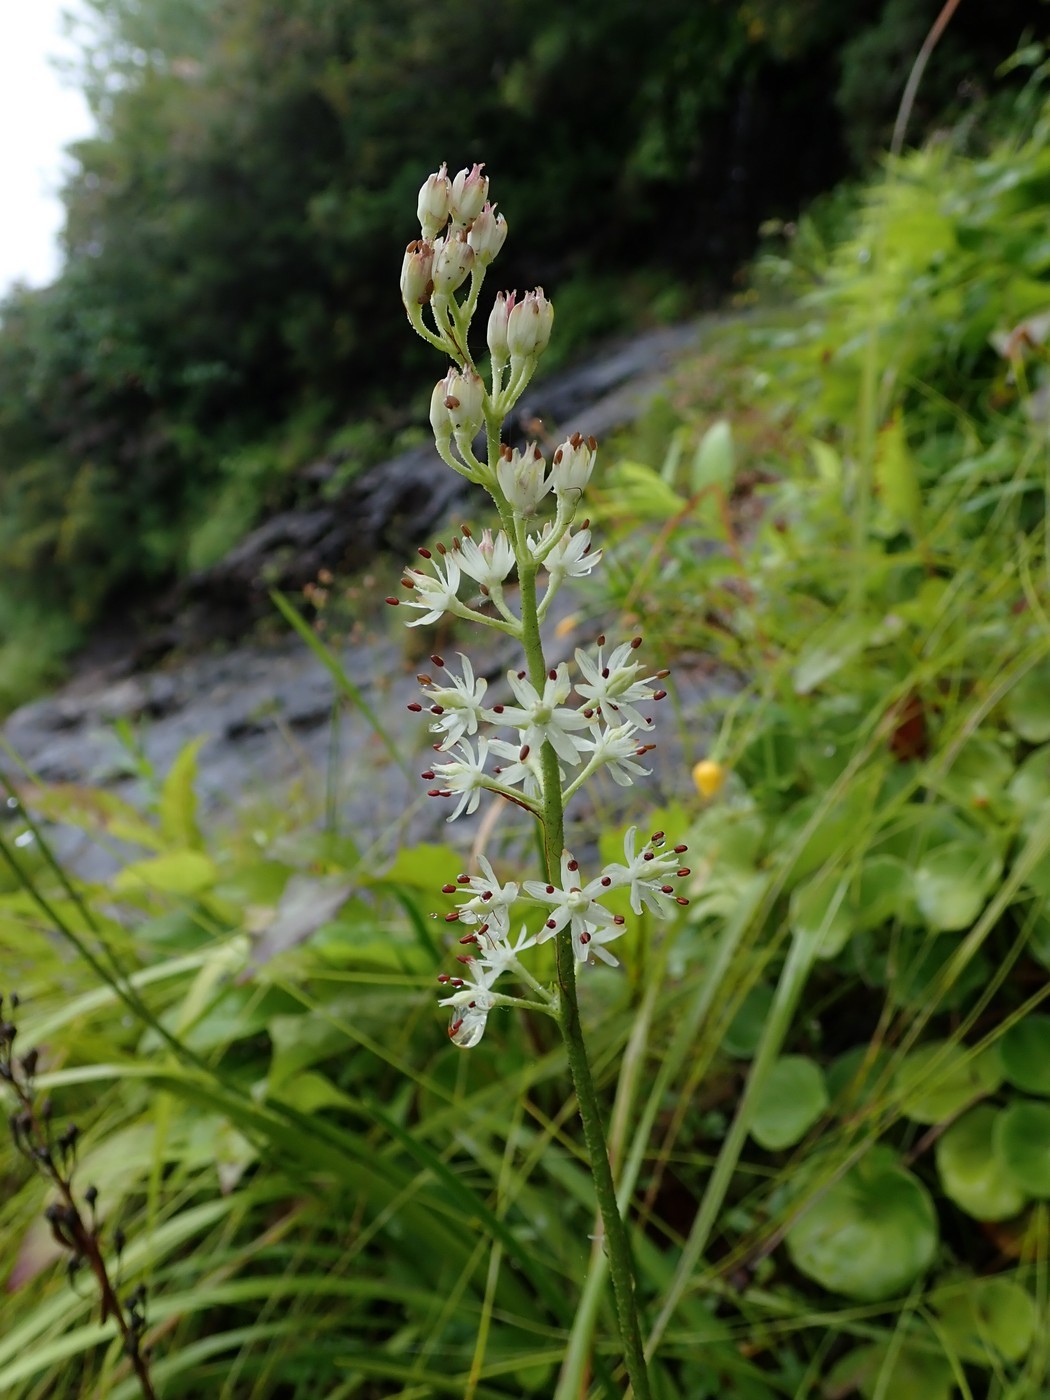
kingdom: Plantae
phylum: Tracheophyta
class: Liliopsida
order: Alismatales
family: Tofieldiaceae
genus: Triantha
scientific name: Triantha glutinosa
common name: Glutinous tofieldia
